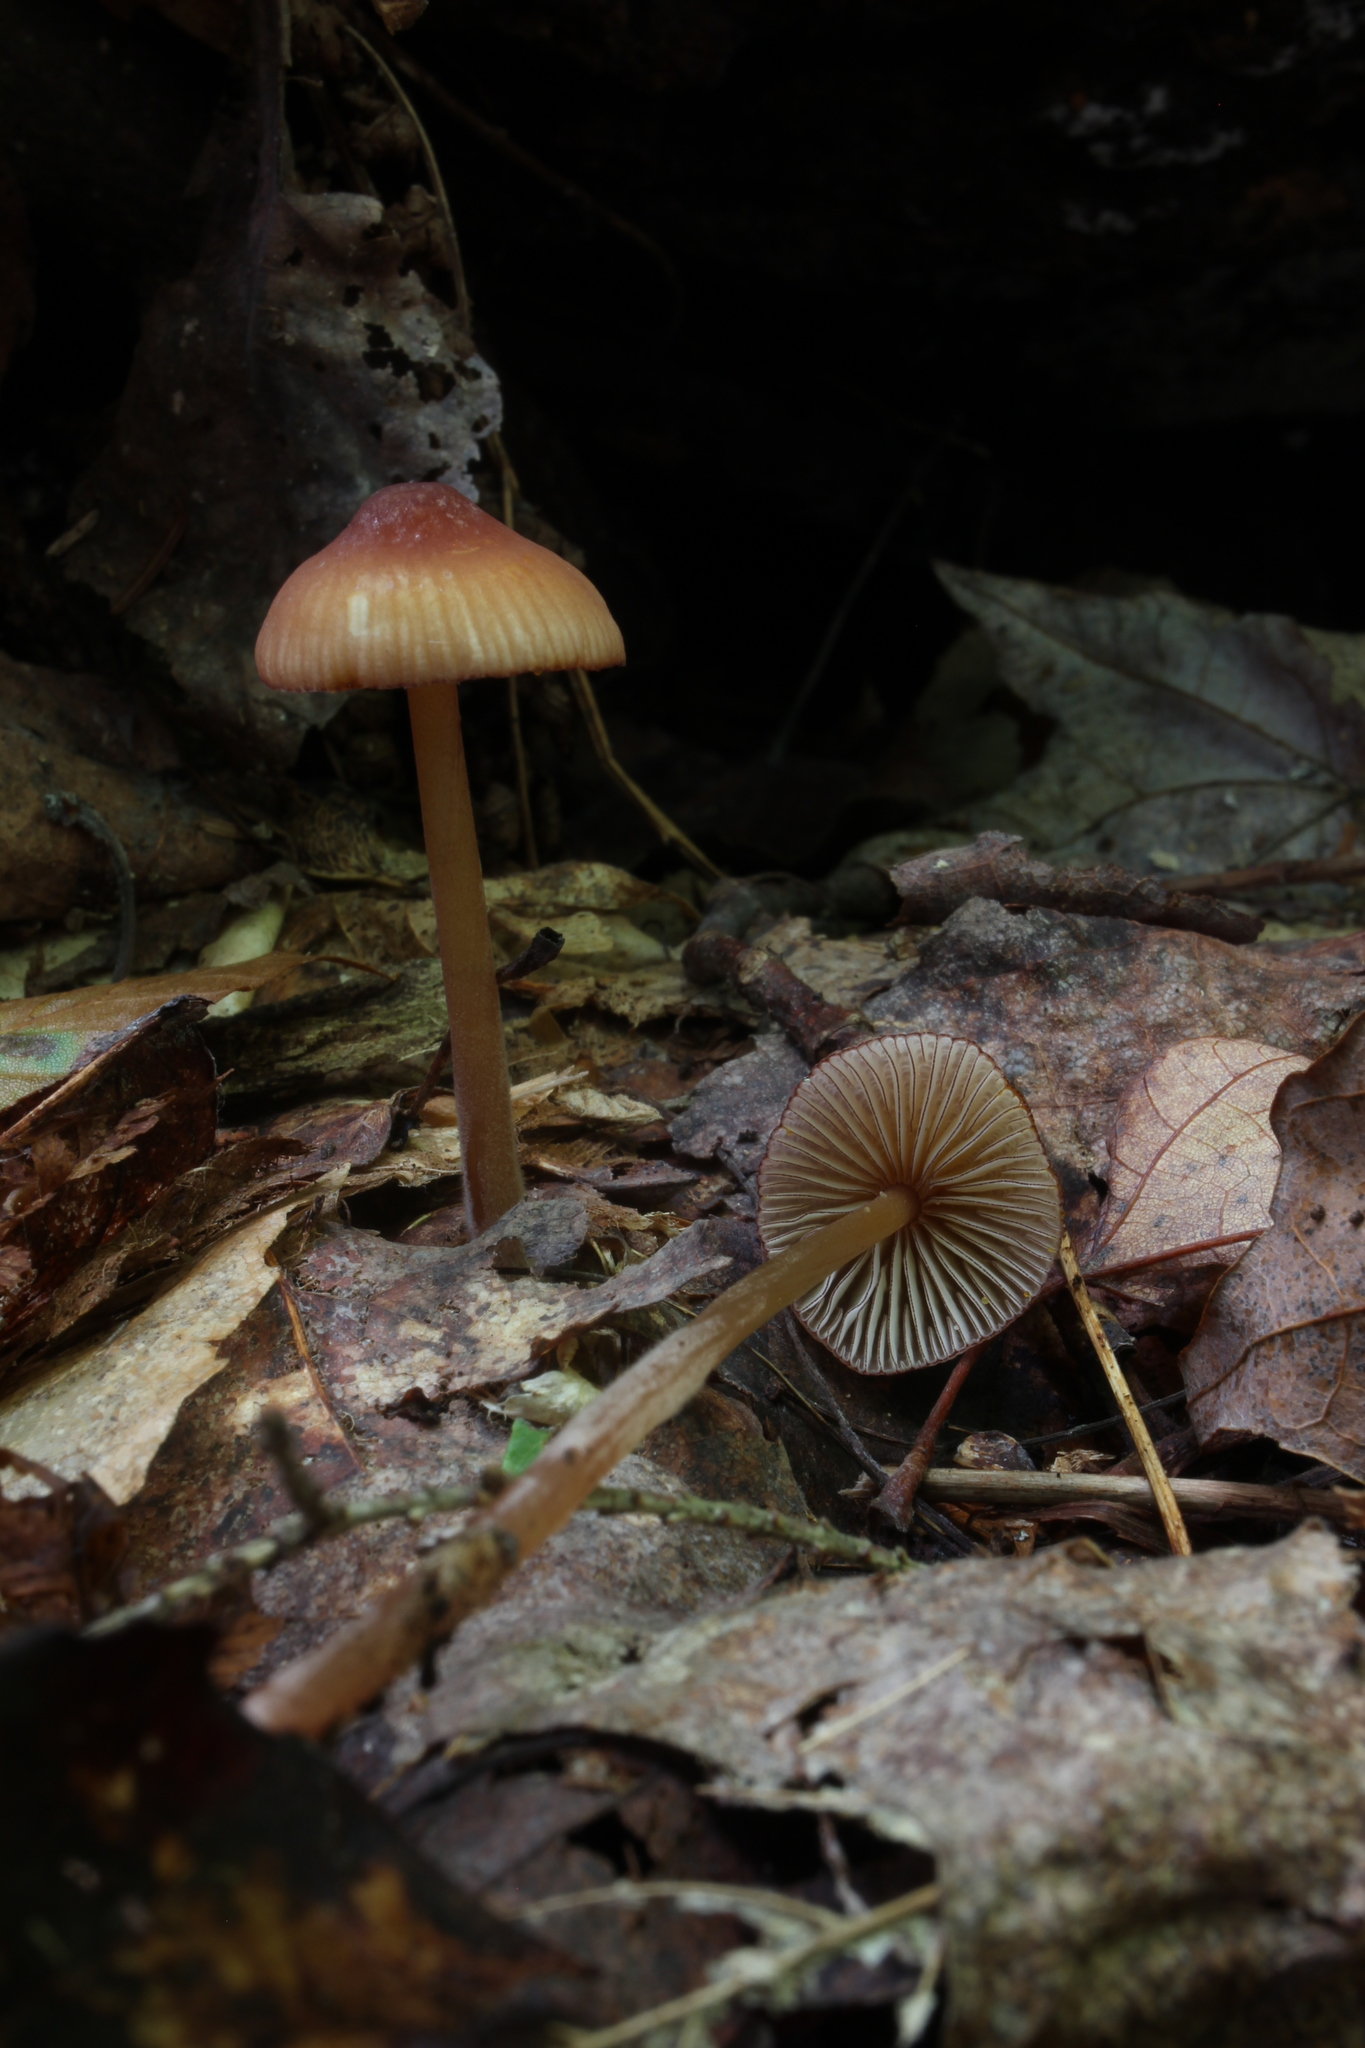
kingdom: Fungi
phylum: Basidiomycota
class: Agaricomycetes
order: Agaricales
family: Mycenaceae
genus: Mycena
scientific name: Mycena atkinsoniana
